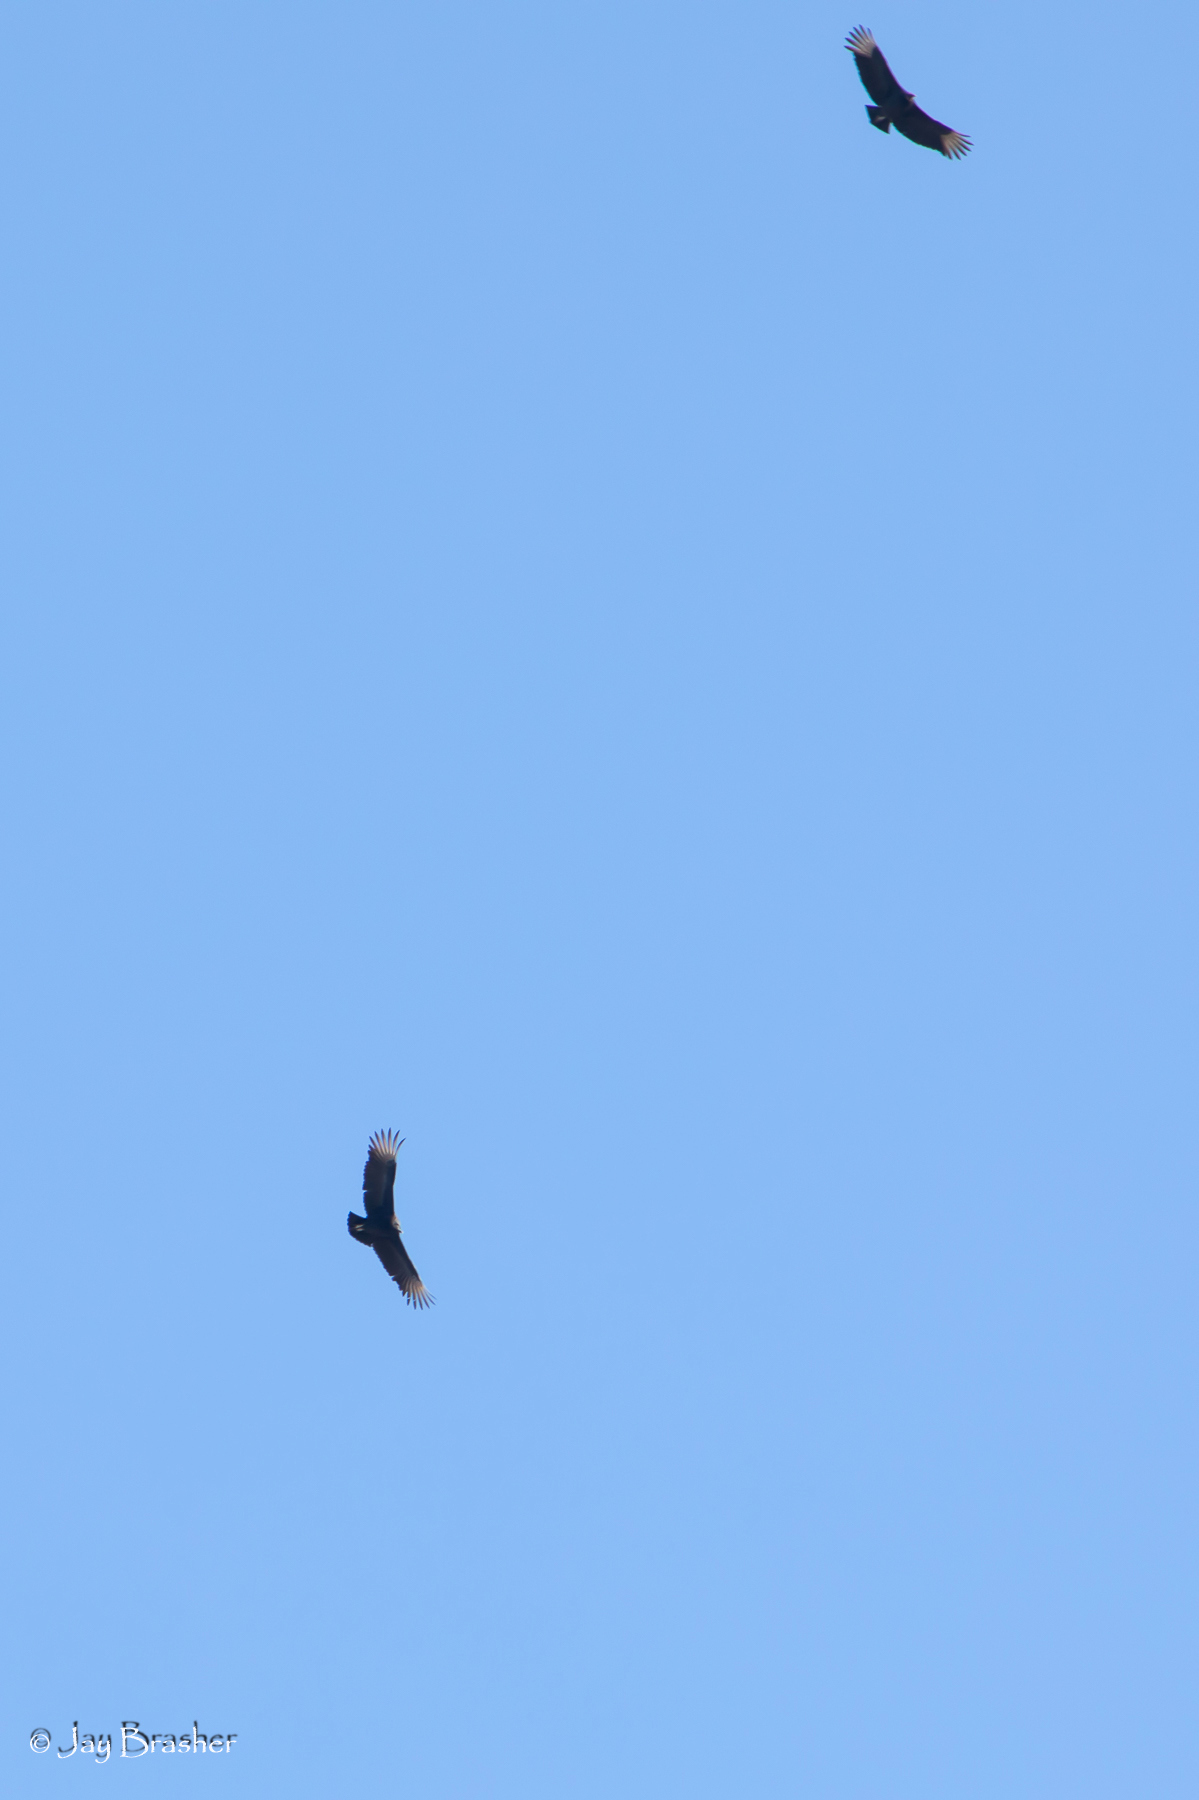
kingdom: Animalia
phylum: Chordata
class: Aves
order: Accipitriformes
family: Cathartidae
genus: Coragyps
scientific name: Coragyps atratus
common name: Black vulture
